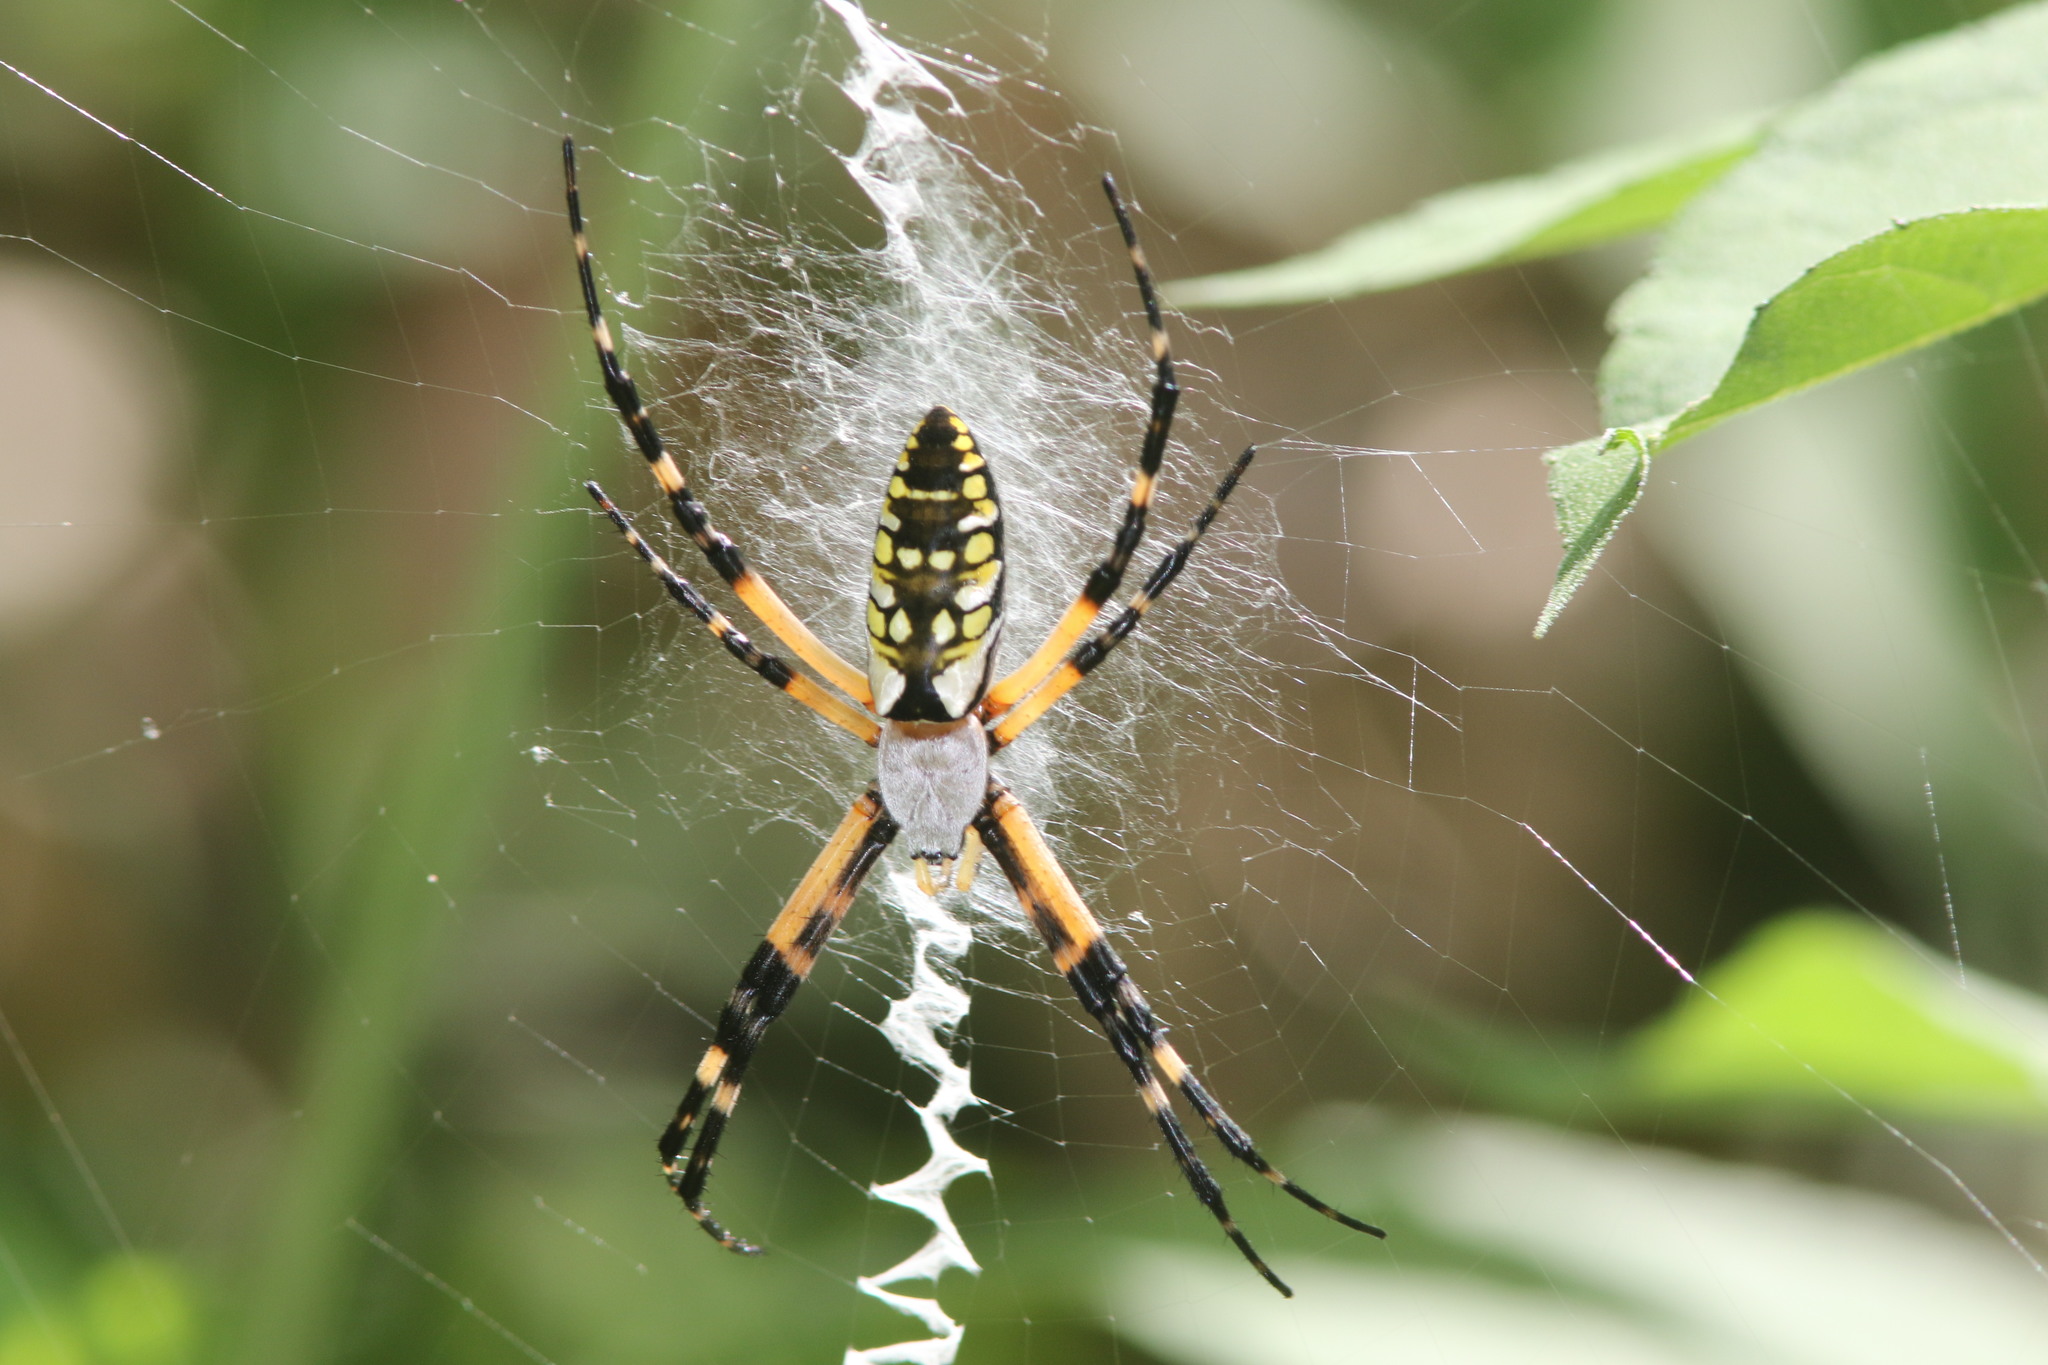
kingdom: Animalia
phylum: Arthropoda
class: Arachnida
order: Araneae
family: Araneidae
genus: Argiope
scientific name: Argiope aurantia
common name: Orb weavers
